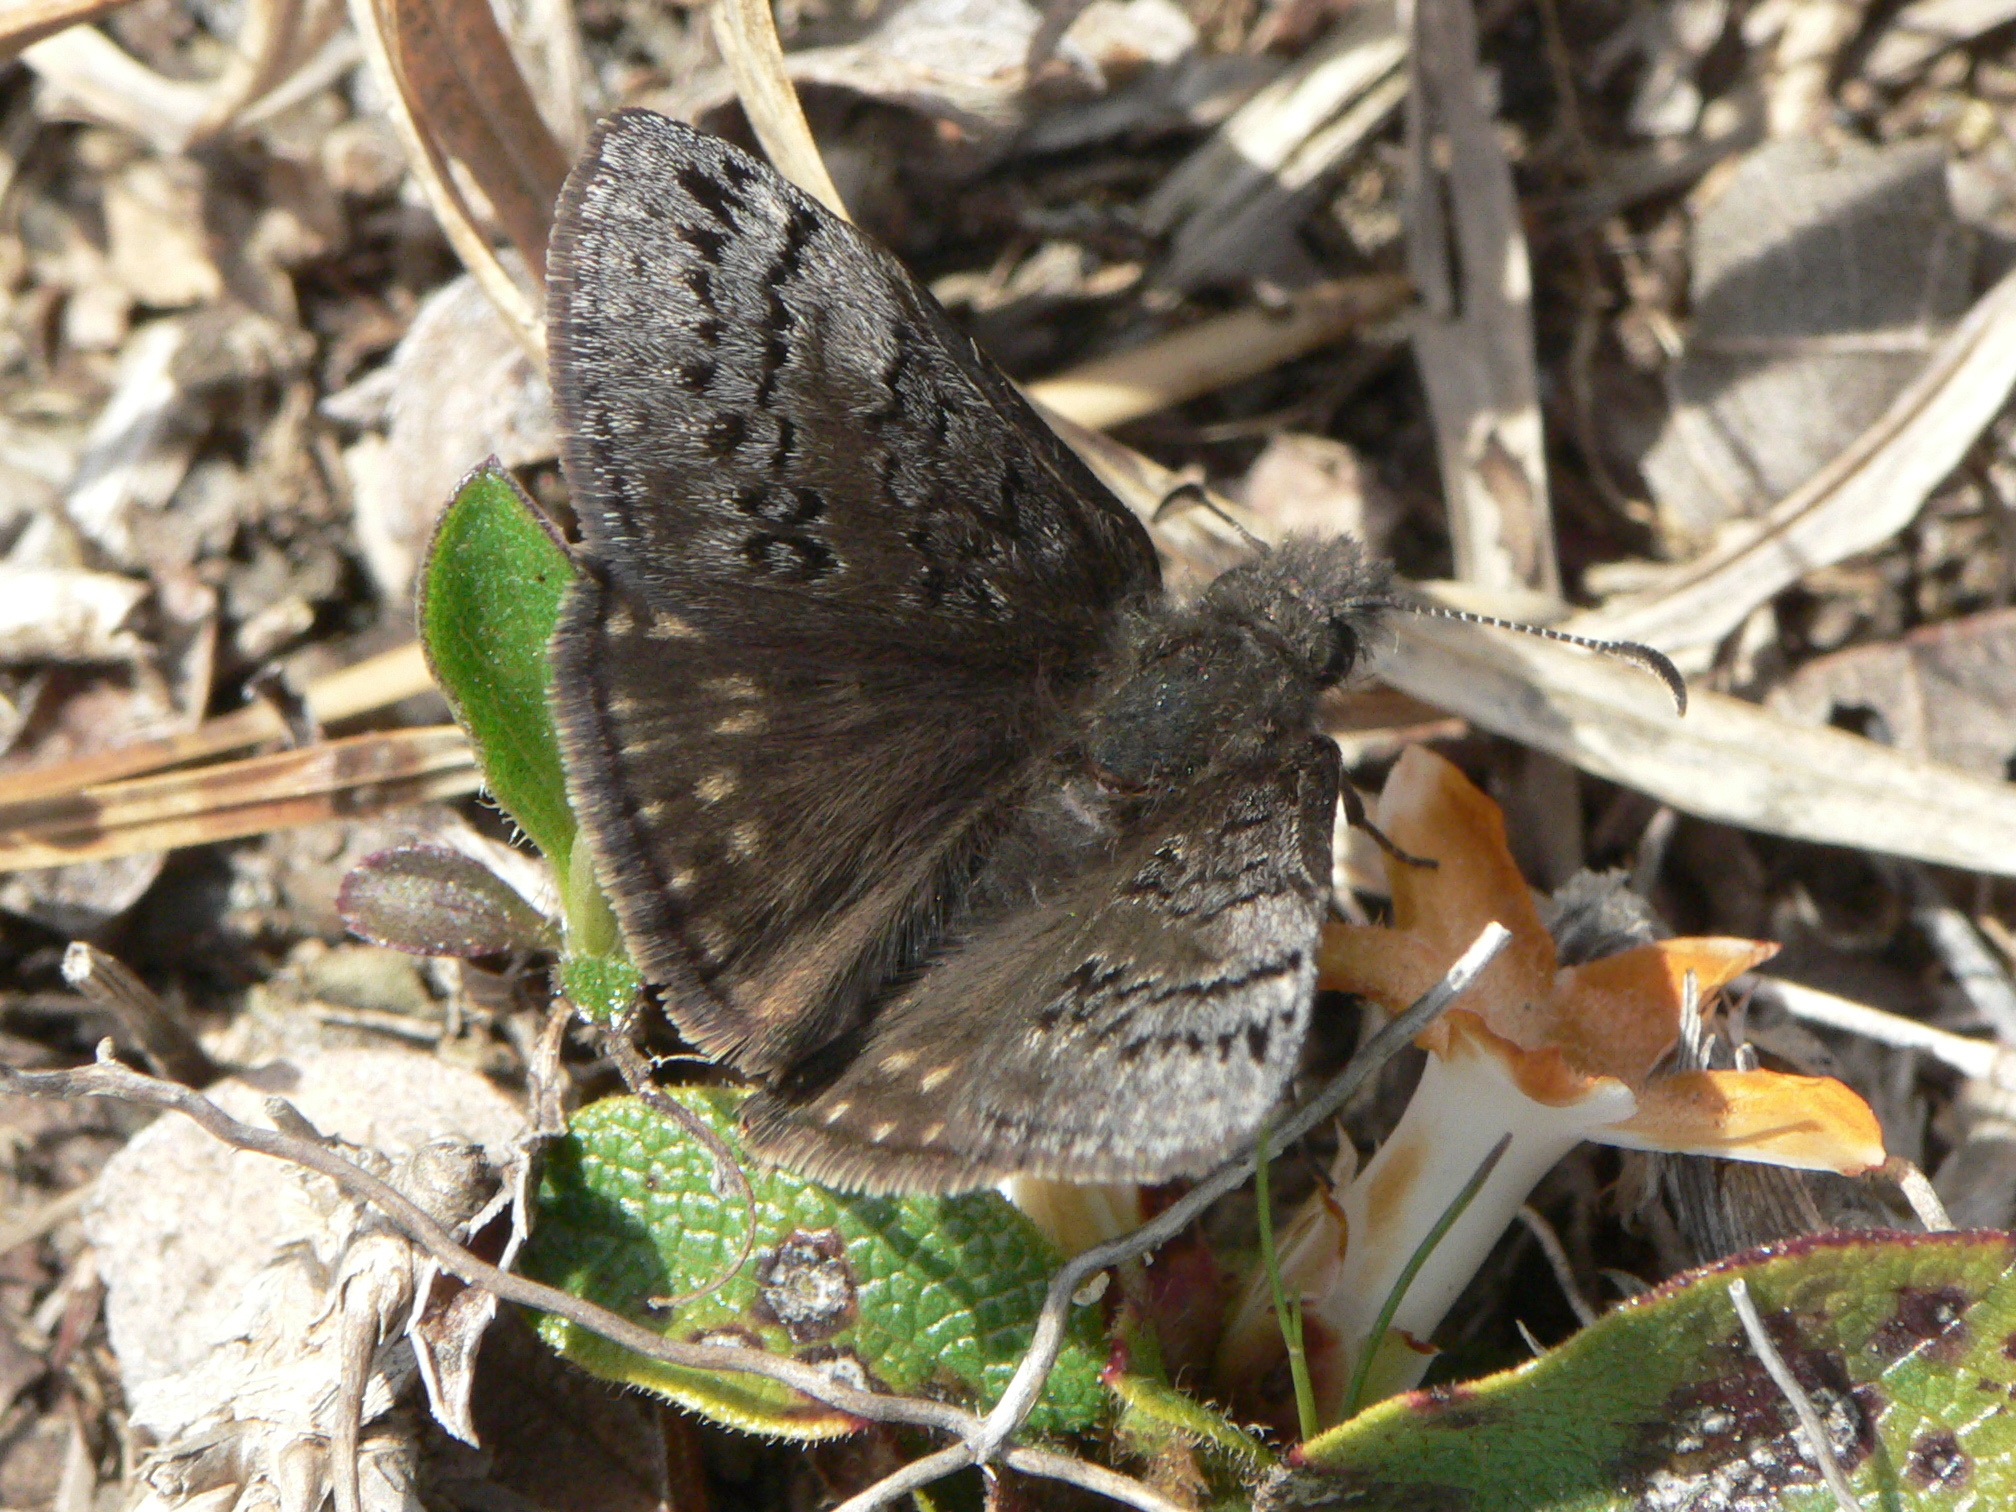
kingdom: Animalia
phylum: Arthropoda
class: Insecta
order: Lepidoptera
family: Hesperiidae
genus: Erynnis
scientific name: Erynnis brizo
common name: Sleepy duskywing
